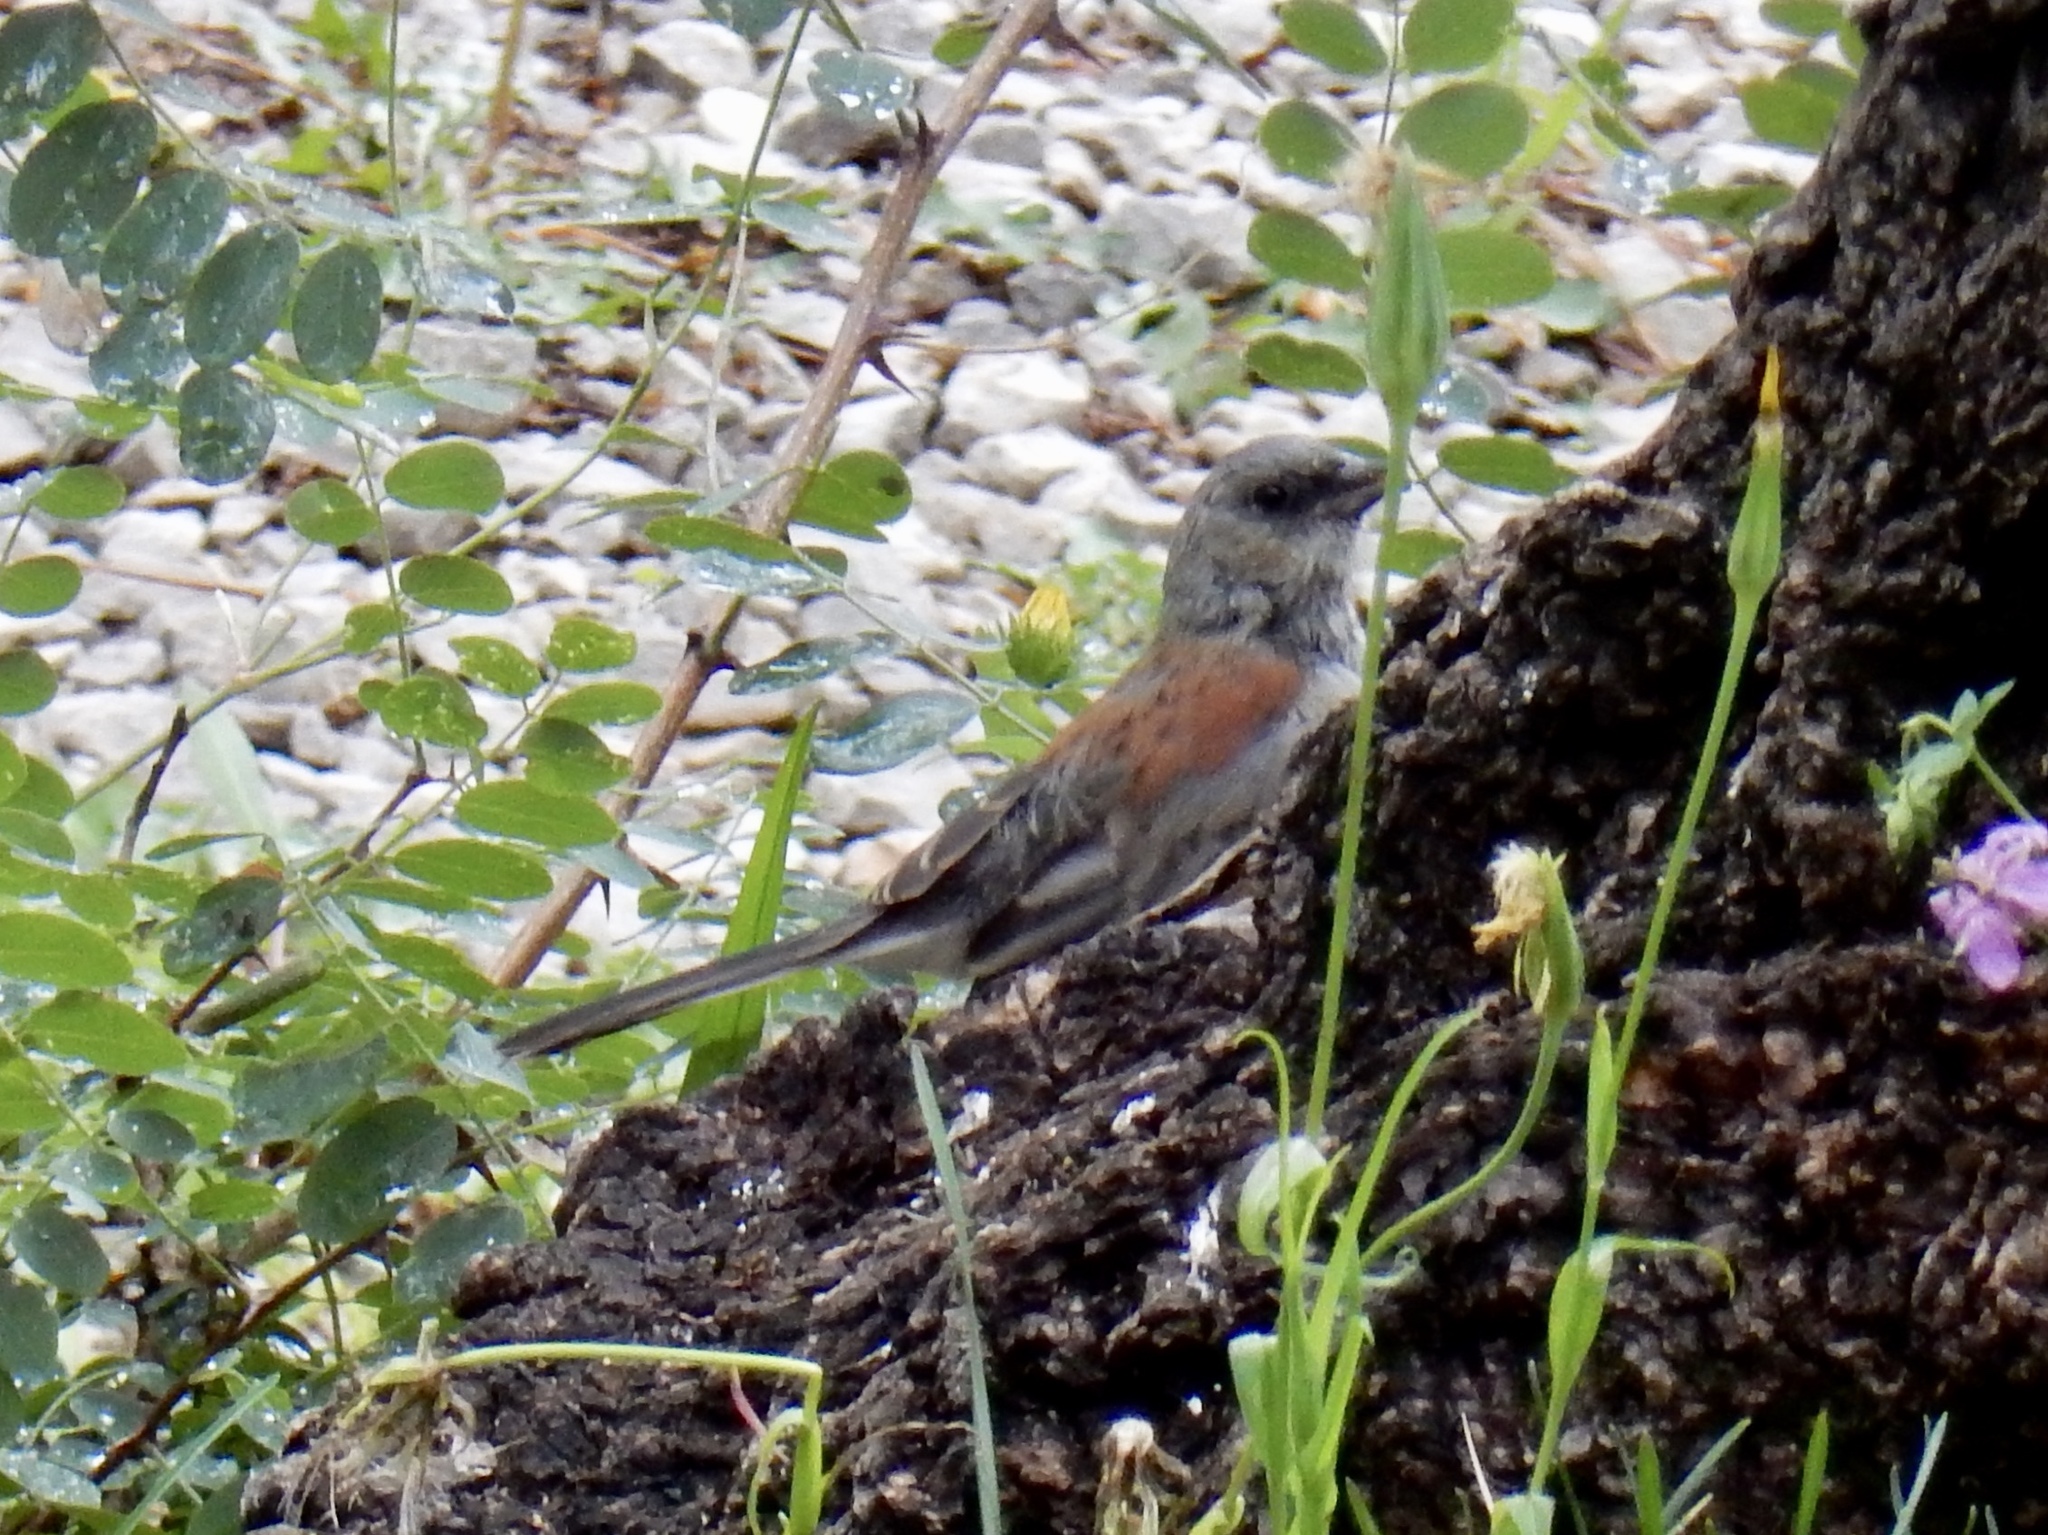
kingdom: Animalia
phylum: Chordata
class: Aves
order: Passeriformes
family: Passerellidae
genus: Junco
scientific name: Junco hyemalis
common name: Dark-eyed junco
